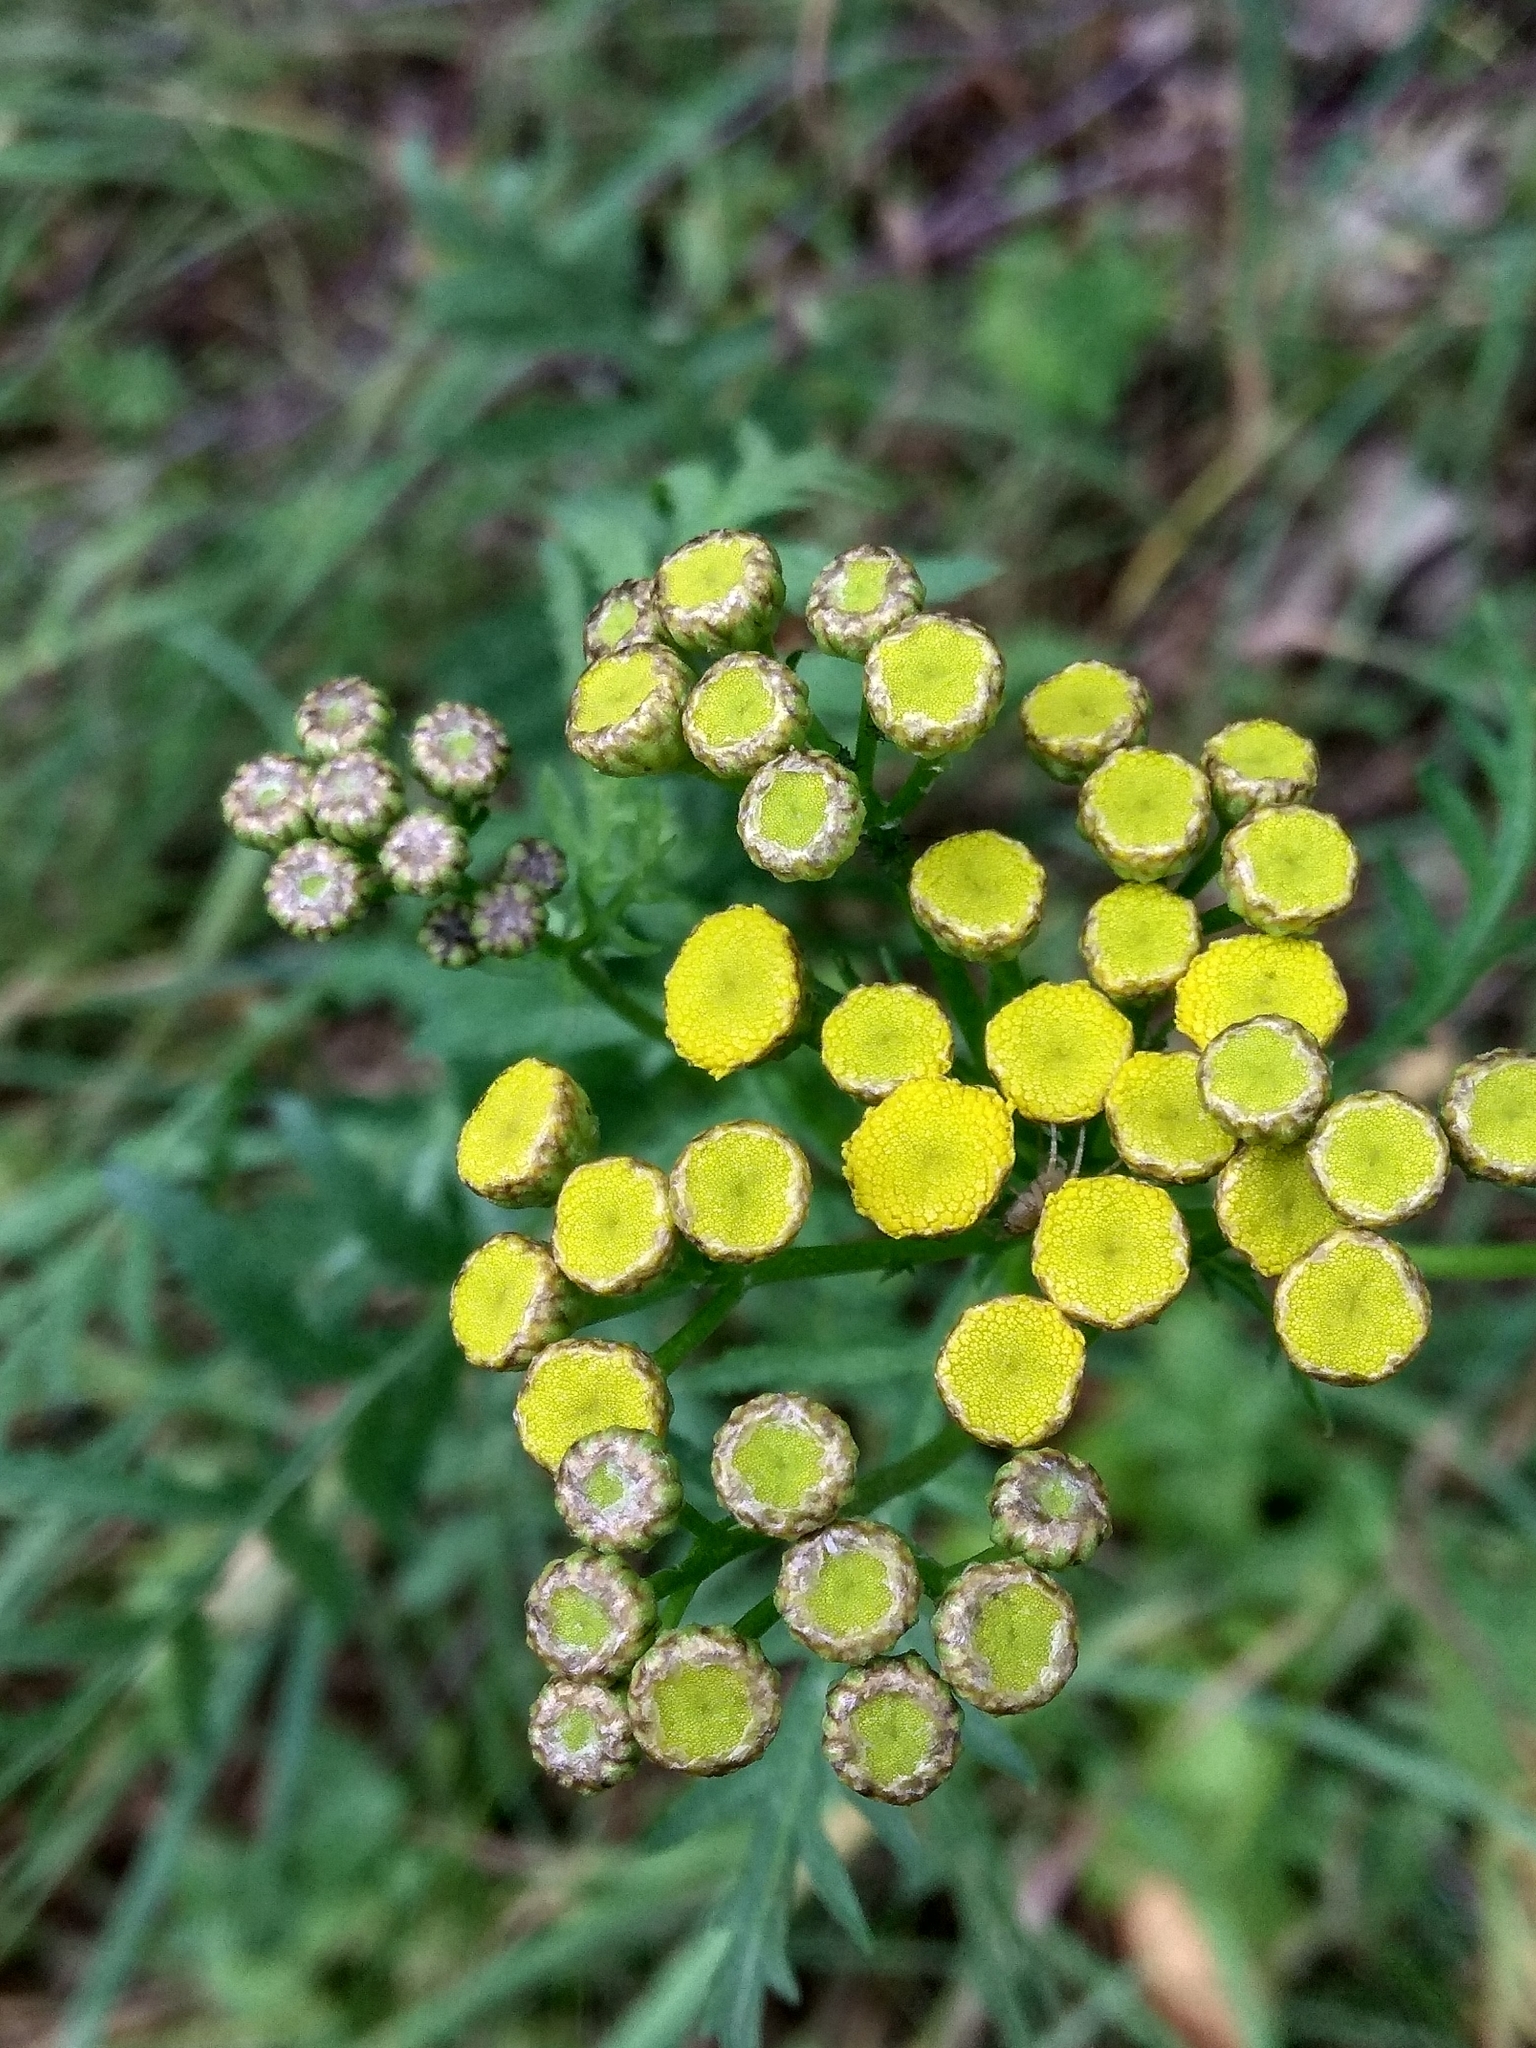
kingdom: Plantae
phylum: Tracheophyta
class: Magnoliopsida
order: Asterales
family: Asteraceae
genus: Tanacetum
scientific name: Tanacetum vulgare
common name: Common tansy
